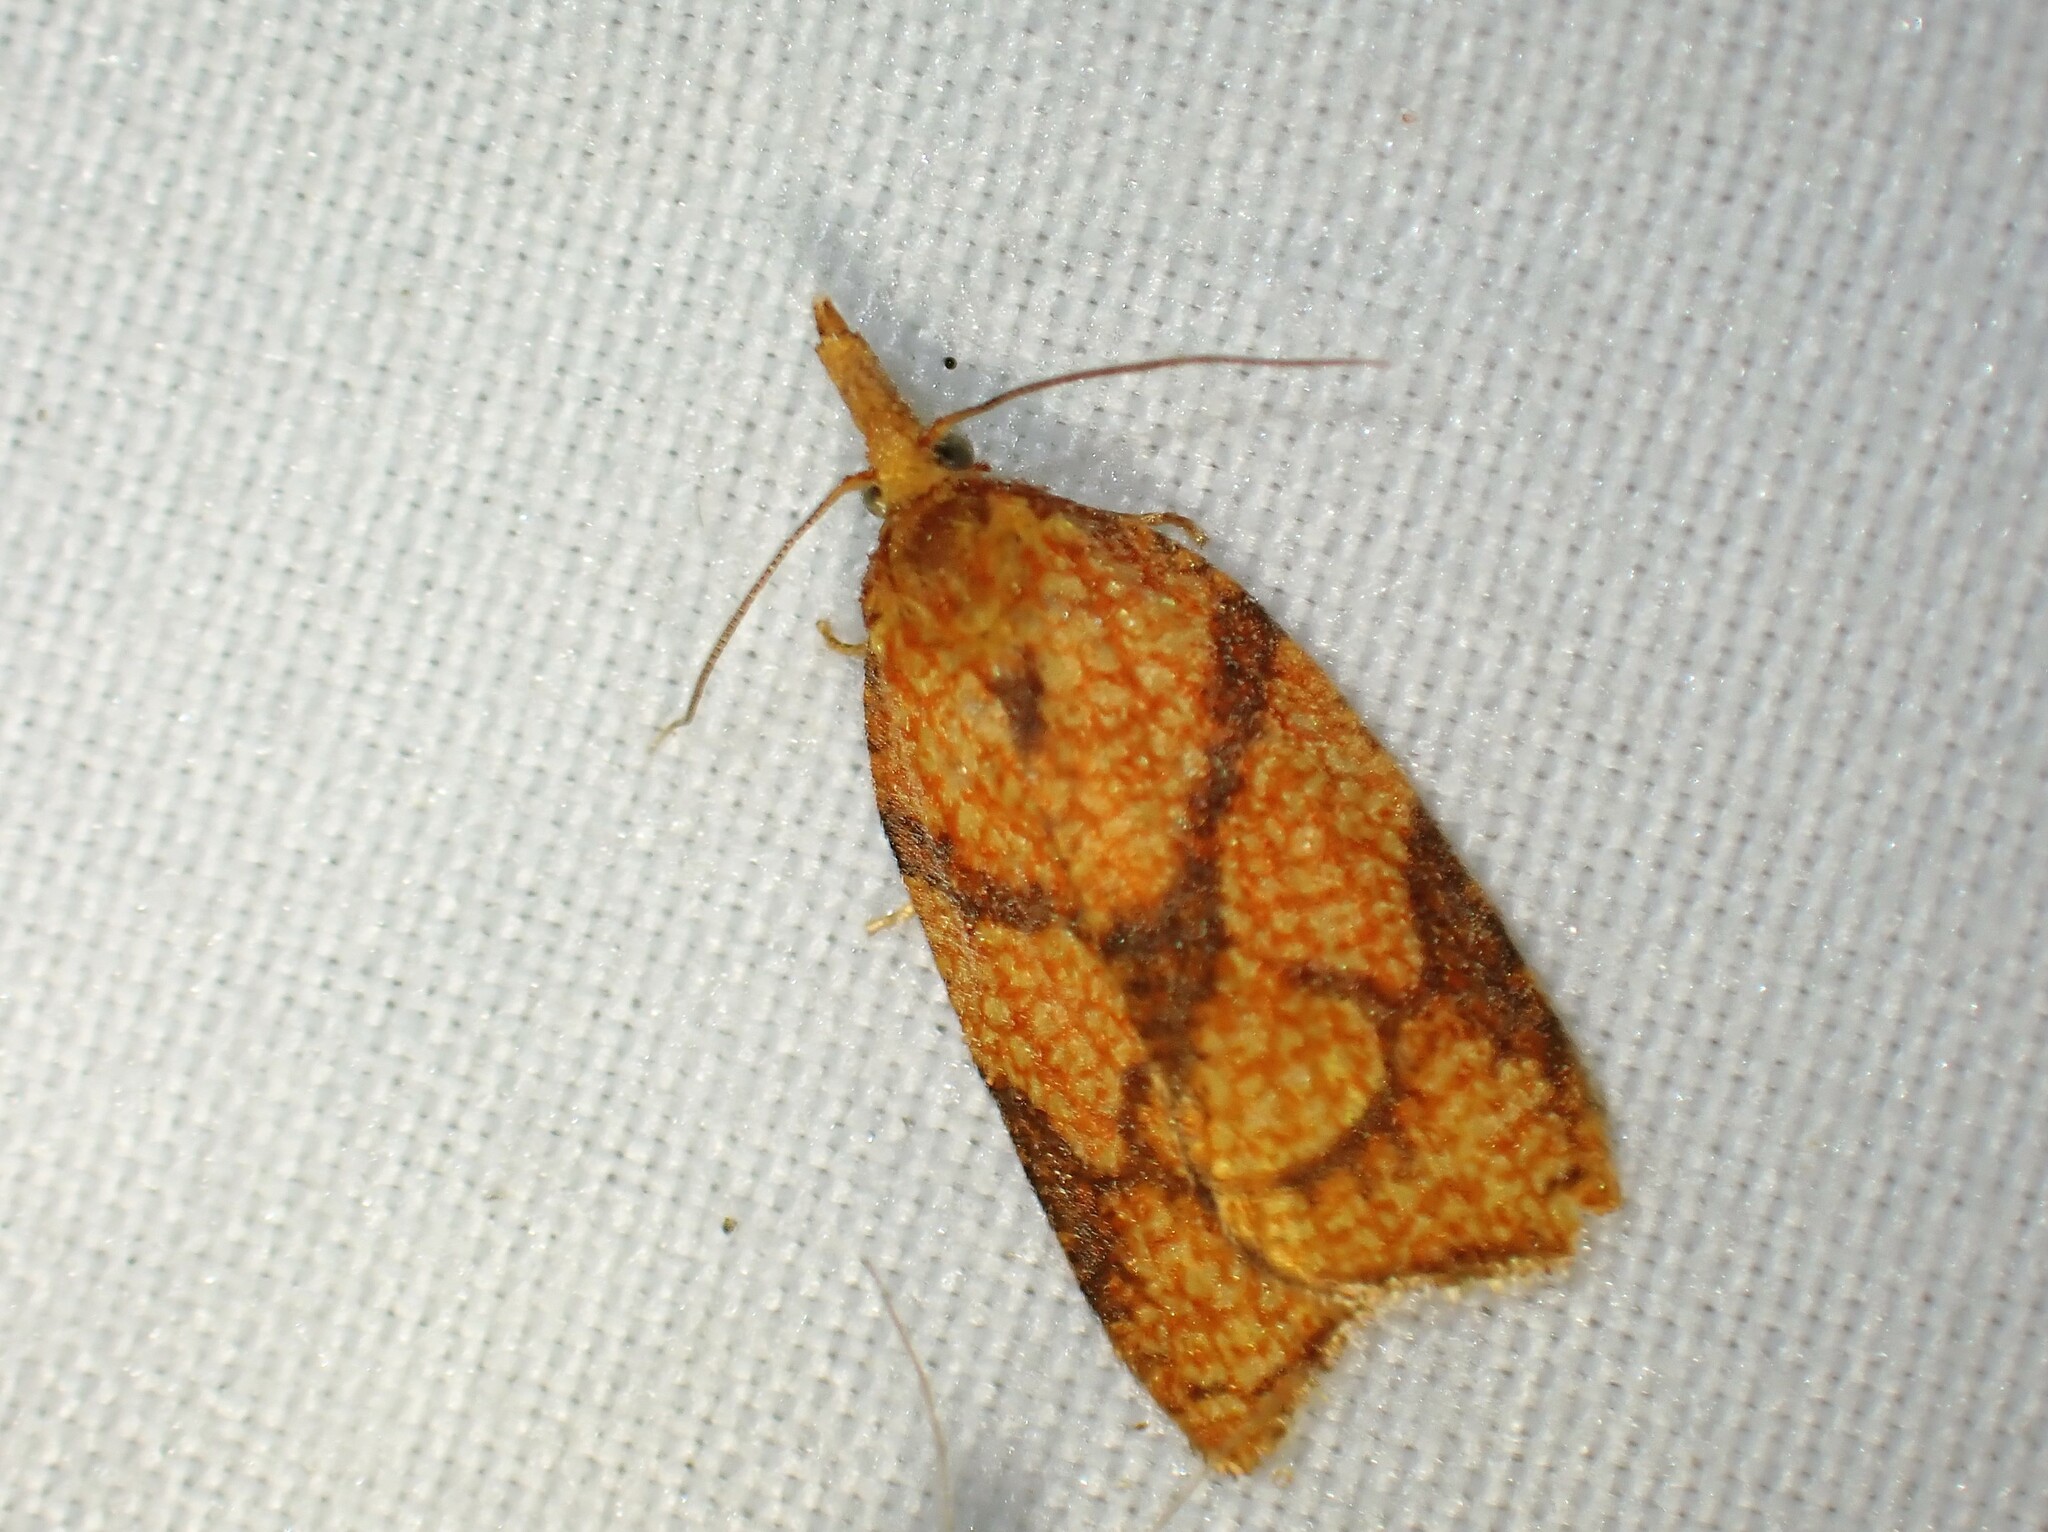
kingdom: Animalia
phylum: Arthropoda
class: Insecta
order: Lepidoptera
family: Tortricidae
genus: Cenopis
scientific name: Cenopis reticulatana
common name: Reticulated fruitworm moth
